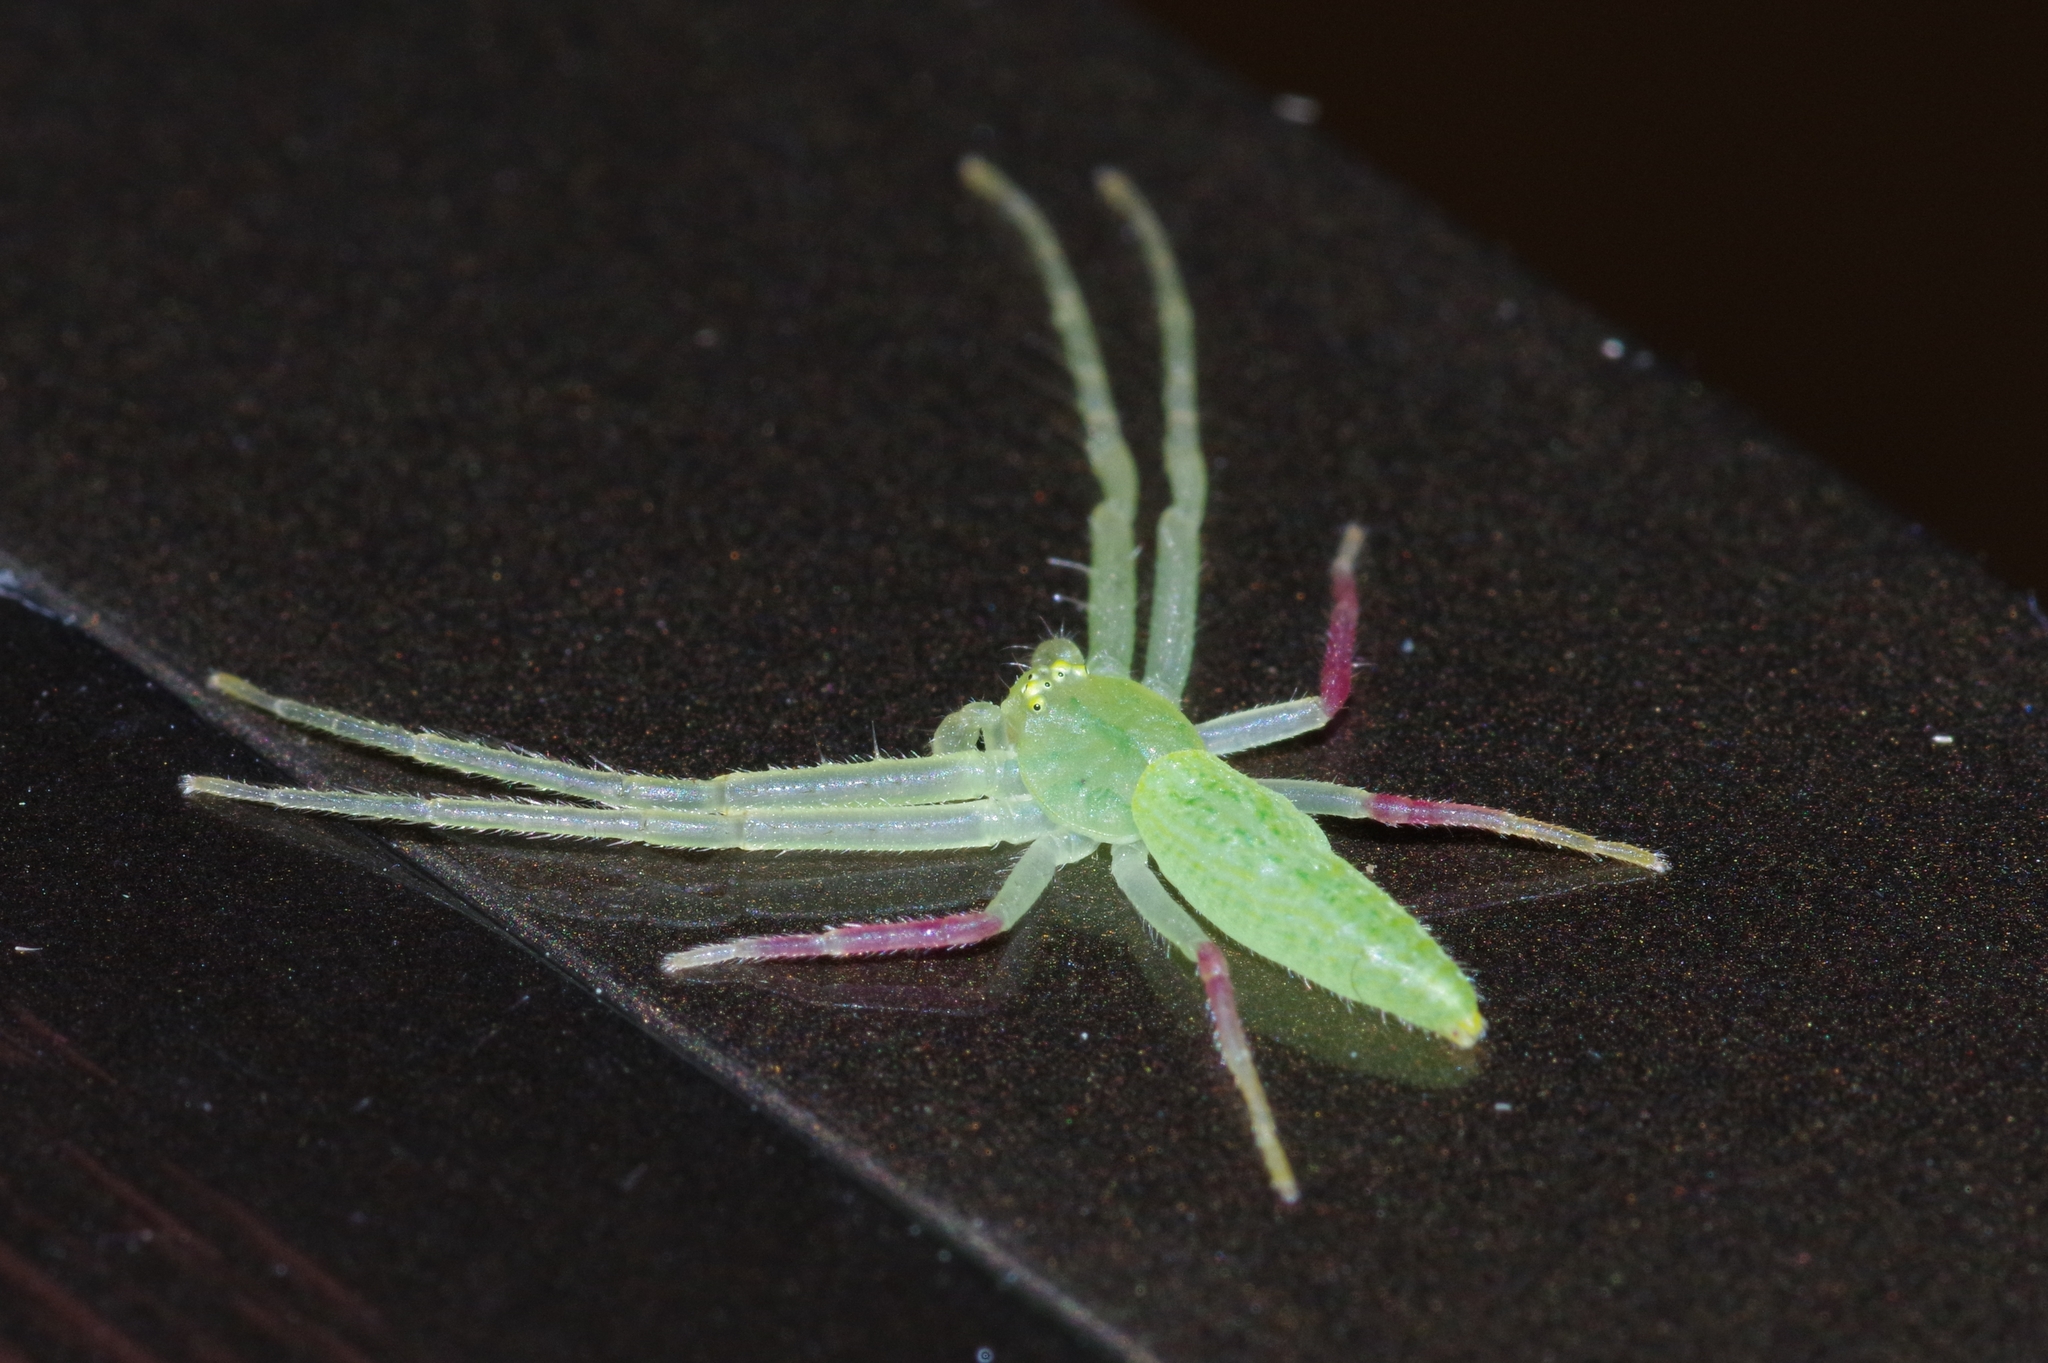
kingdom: Animalia
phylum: Arthropoda
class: Arachnida
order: Araneae
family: Thomisidae
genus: Oxytate
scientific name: Oxytate hoshizuna
